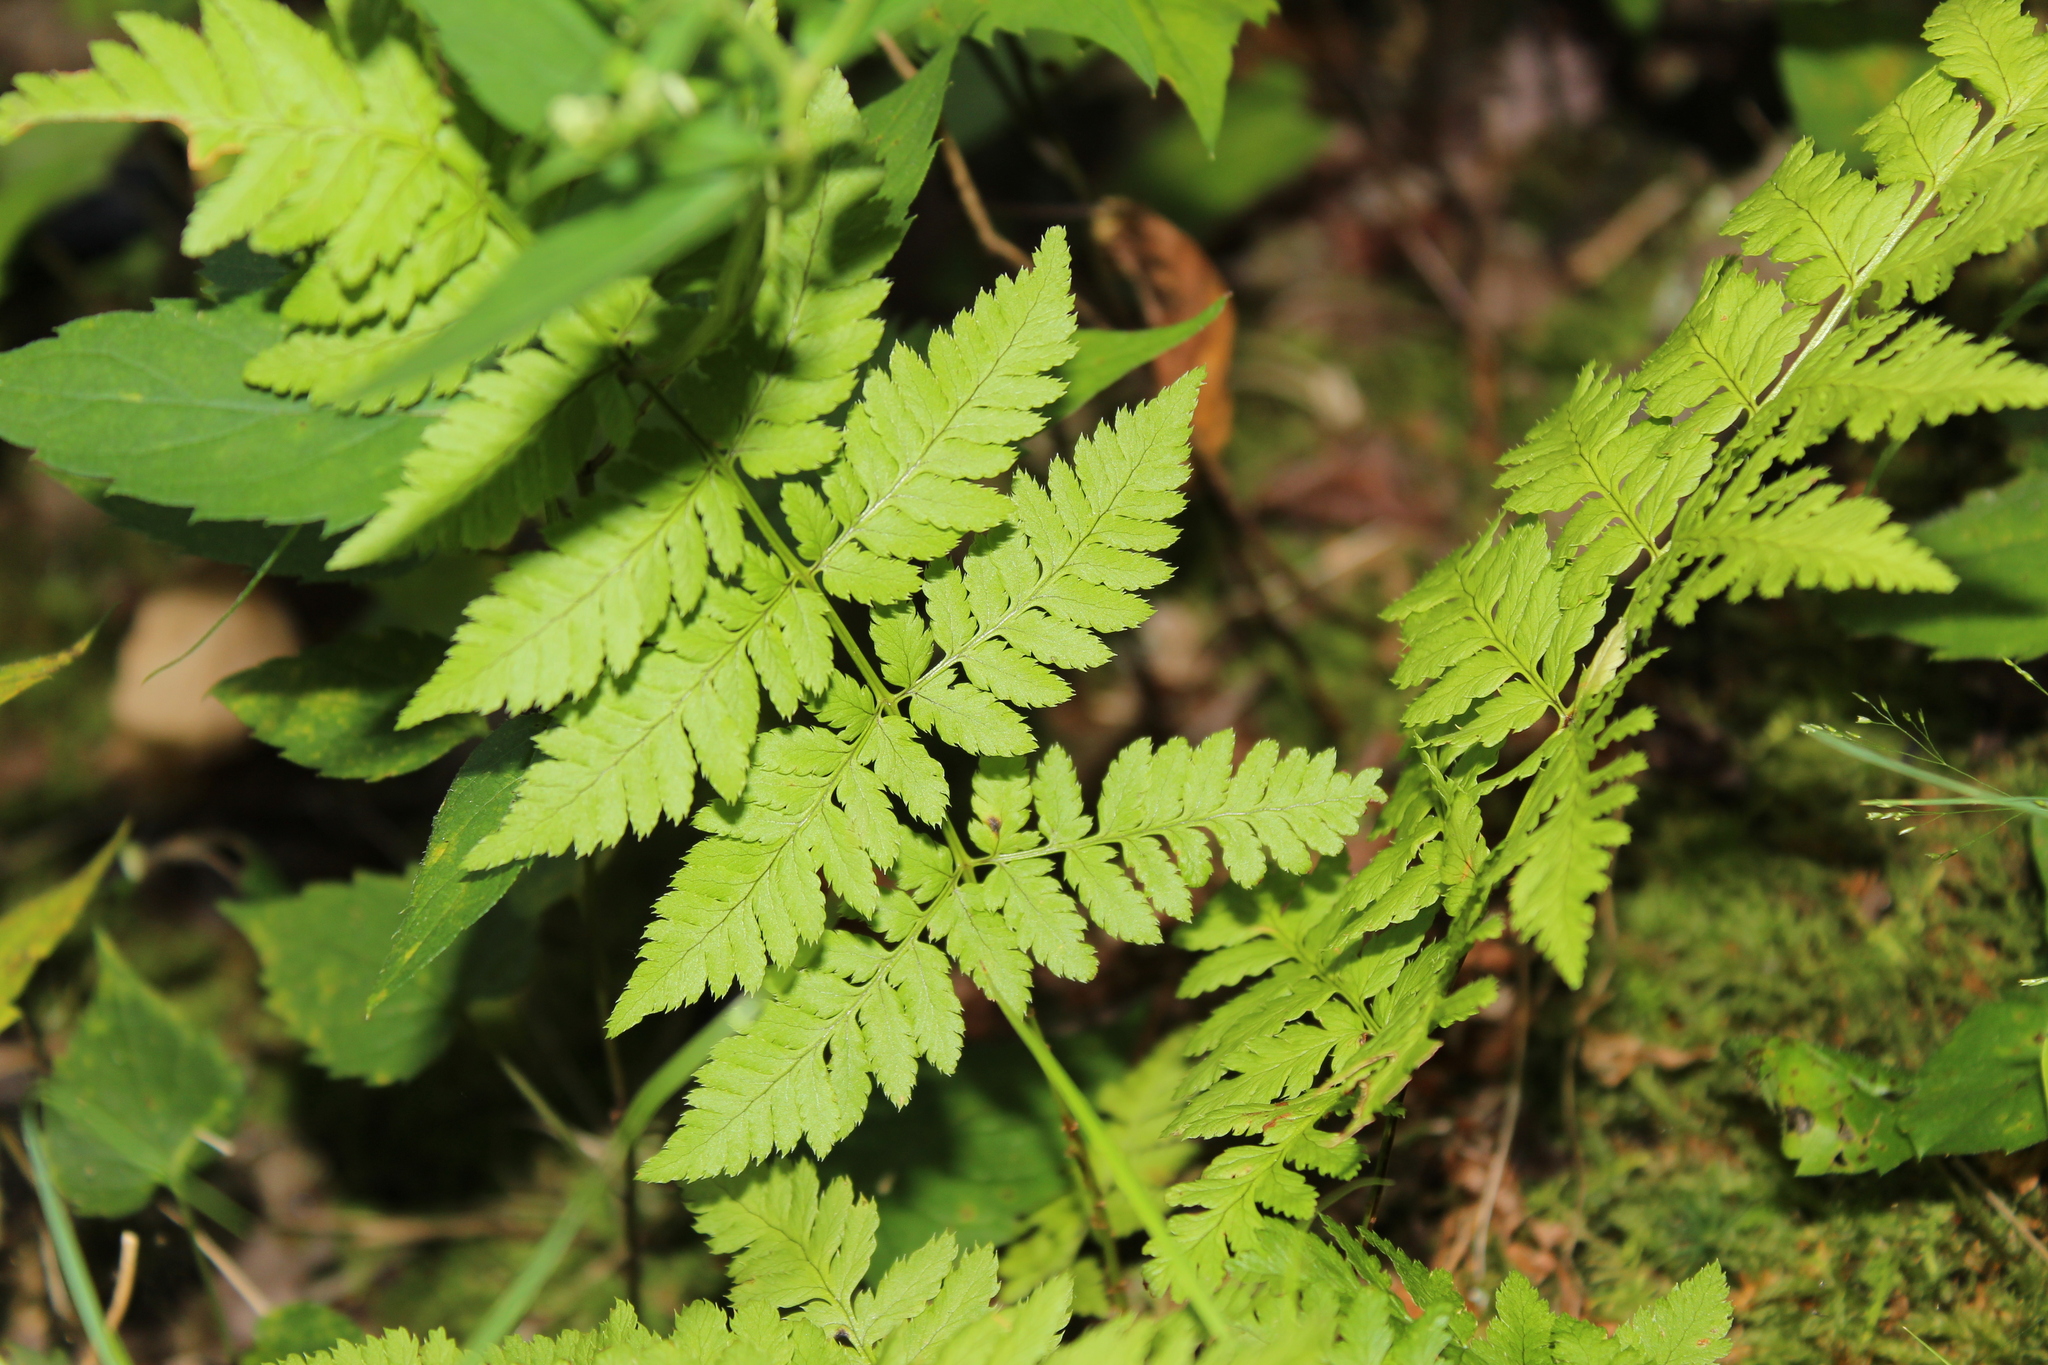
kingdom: Plantae
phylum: Tracheophyta
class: Polypodiopsida
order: Polypodiales
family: Dryopteridaceae
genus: Dryopteris
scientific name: Dryopteris intermedia
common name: Evergreen wood fern
